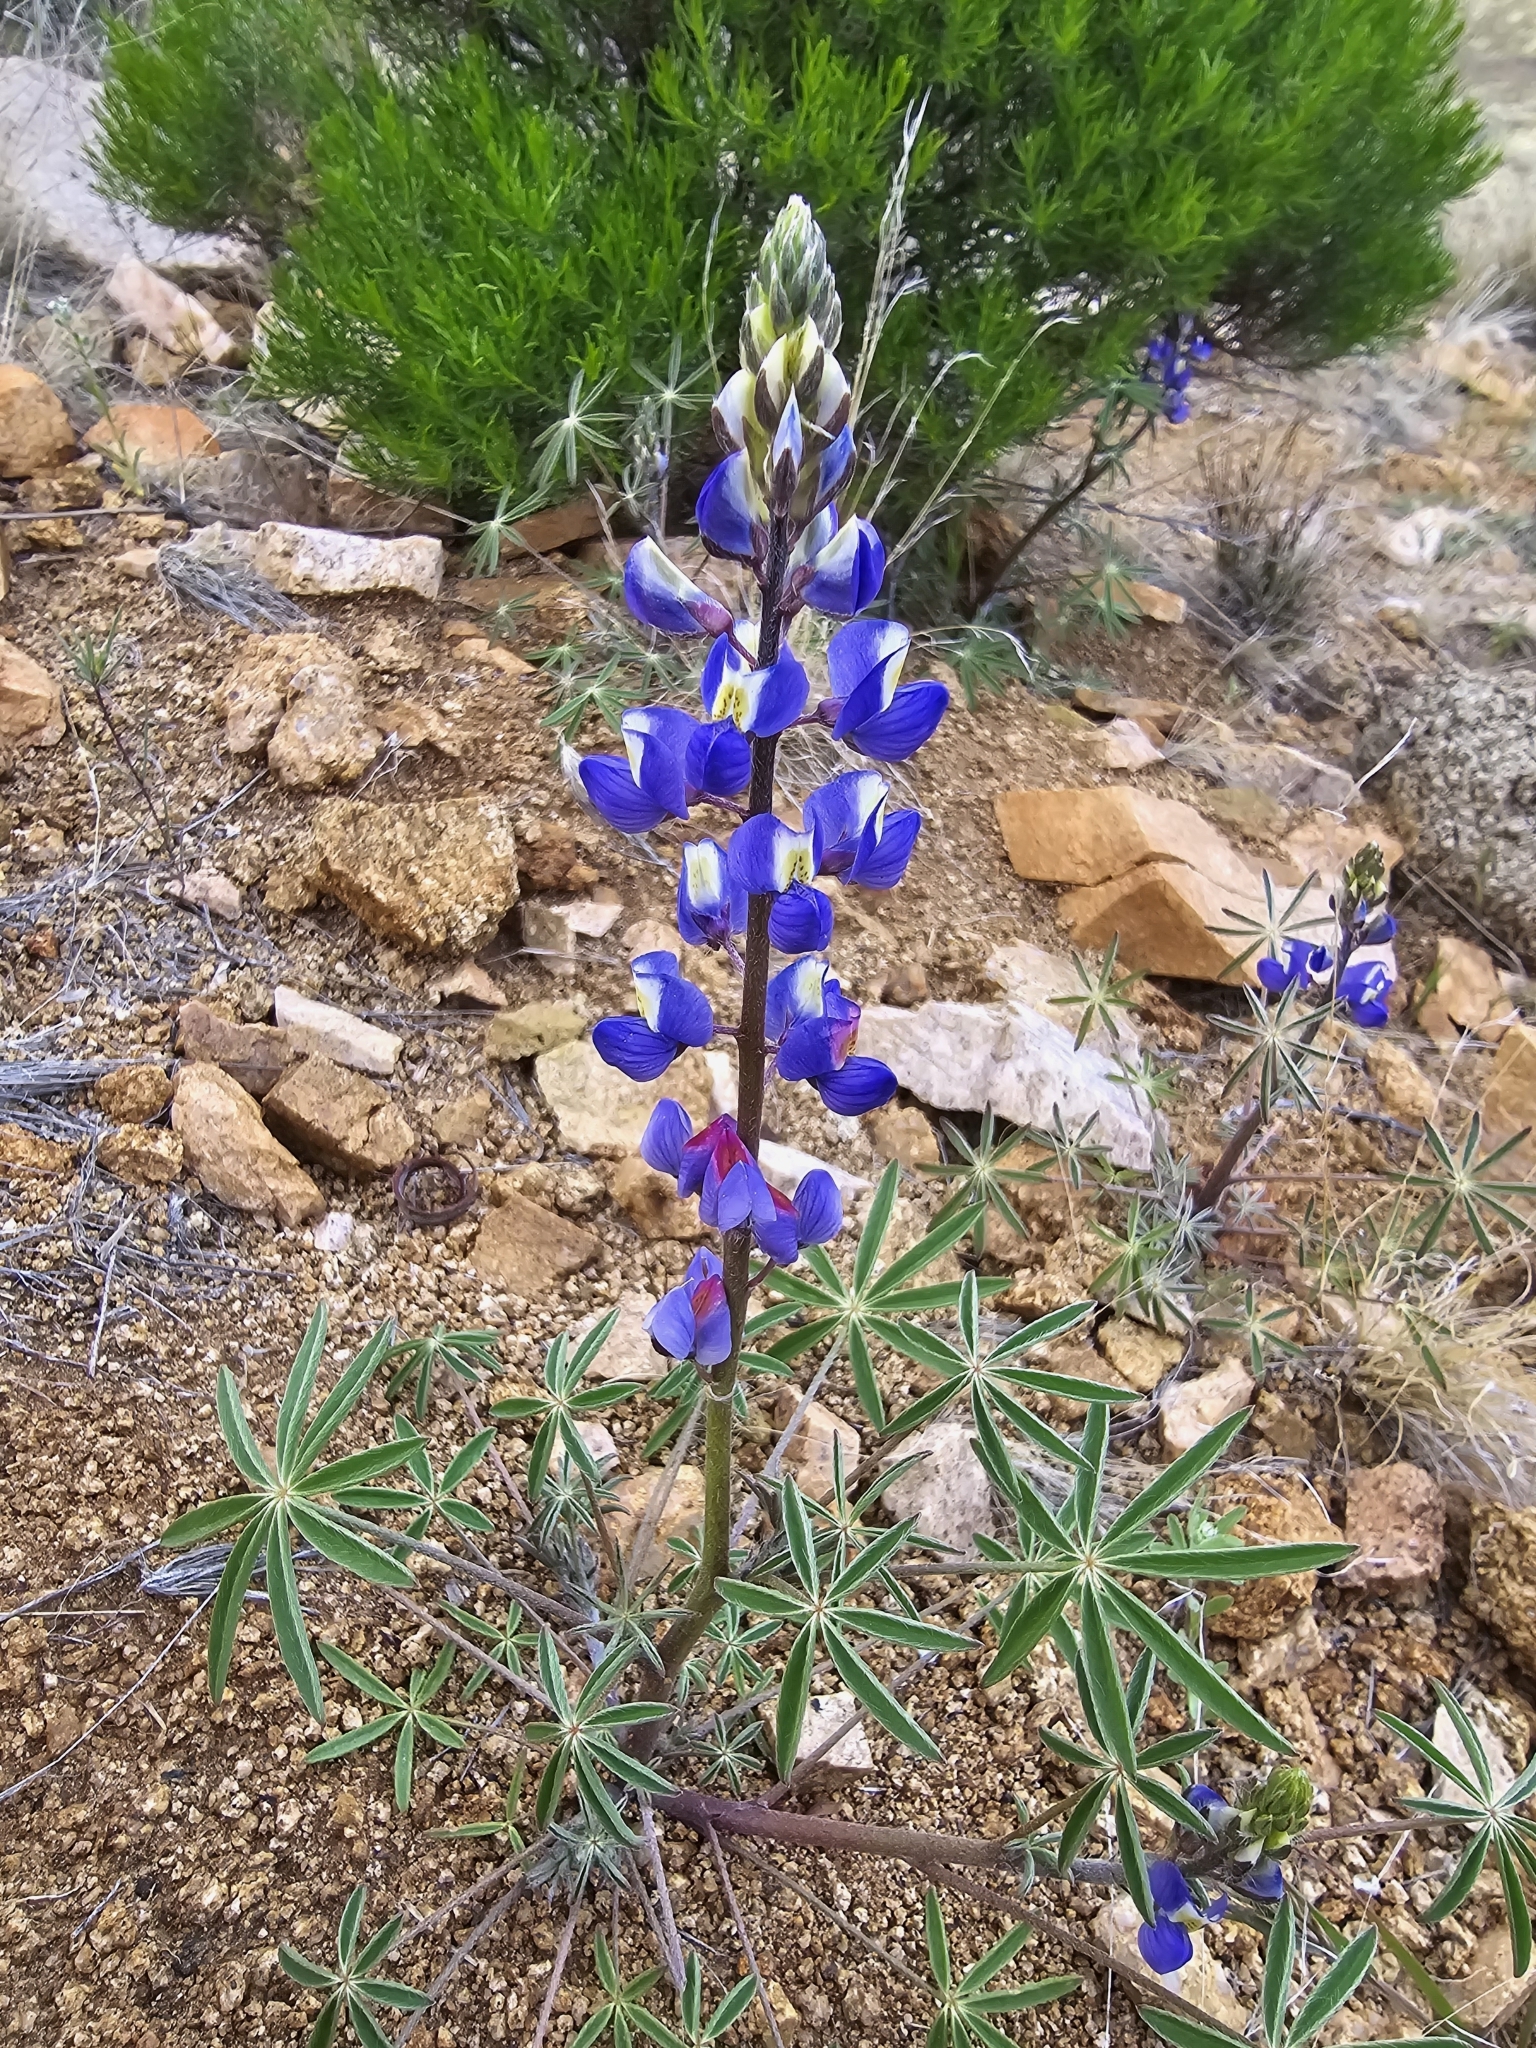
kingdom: Plantae
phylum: Tracheophyta
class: Magnoliopsida
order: Fabales
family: Fabaceae
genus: Lupinus
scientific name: Lupinus sparsiflorus
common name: Coulter's lupine
